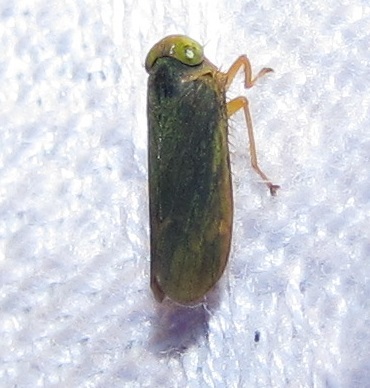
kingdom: Animalia
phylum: Arthropoda
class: Insecta
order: Hemiptera
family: Cicadellidae
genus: Jikradia
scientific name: Jikradia olitoria
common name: Coppery leafhopper
